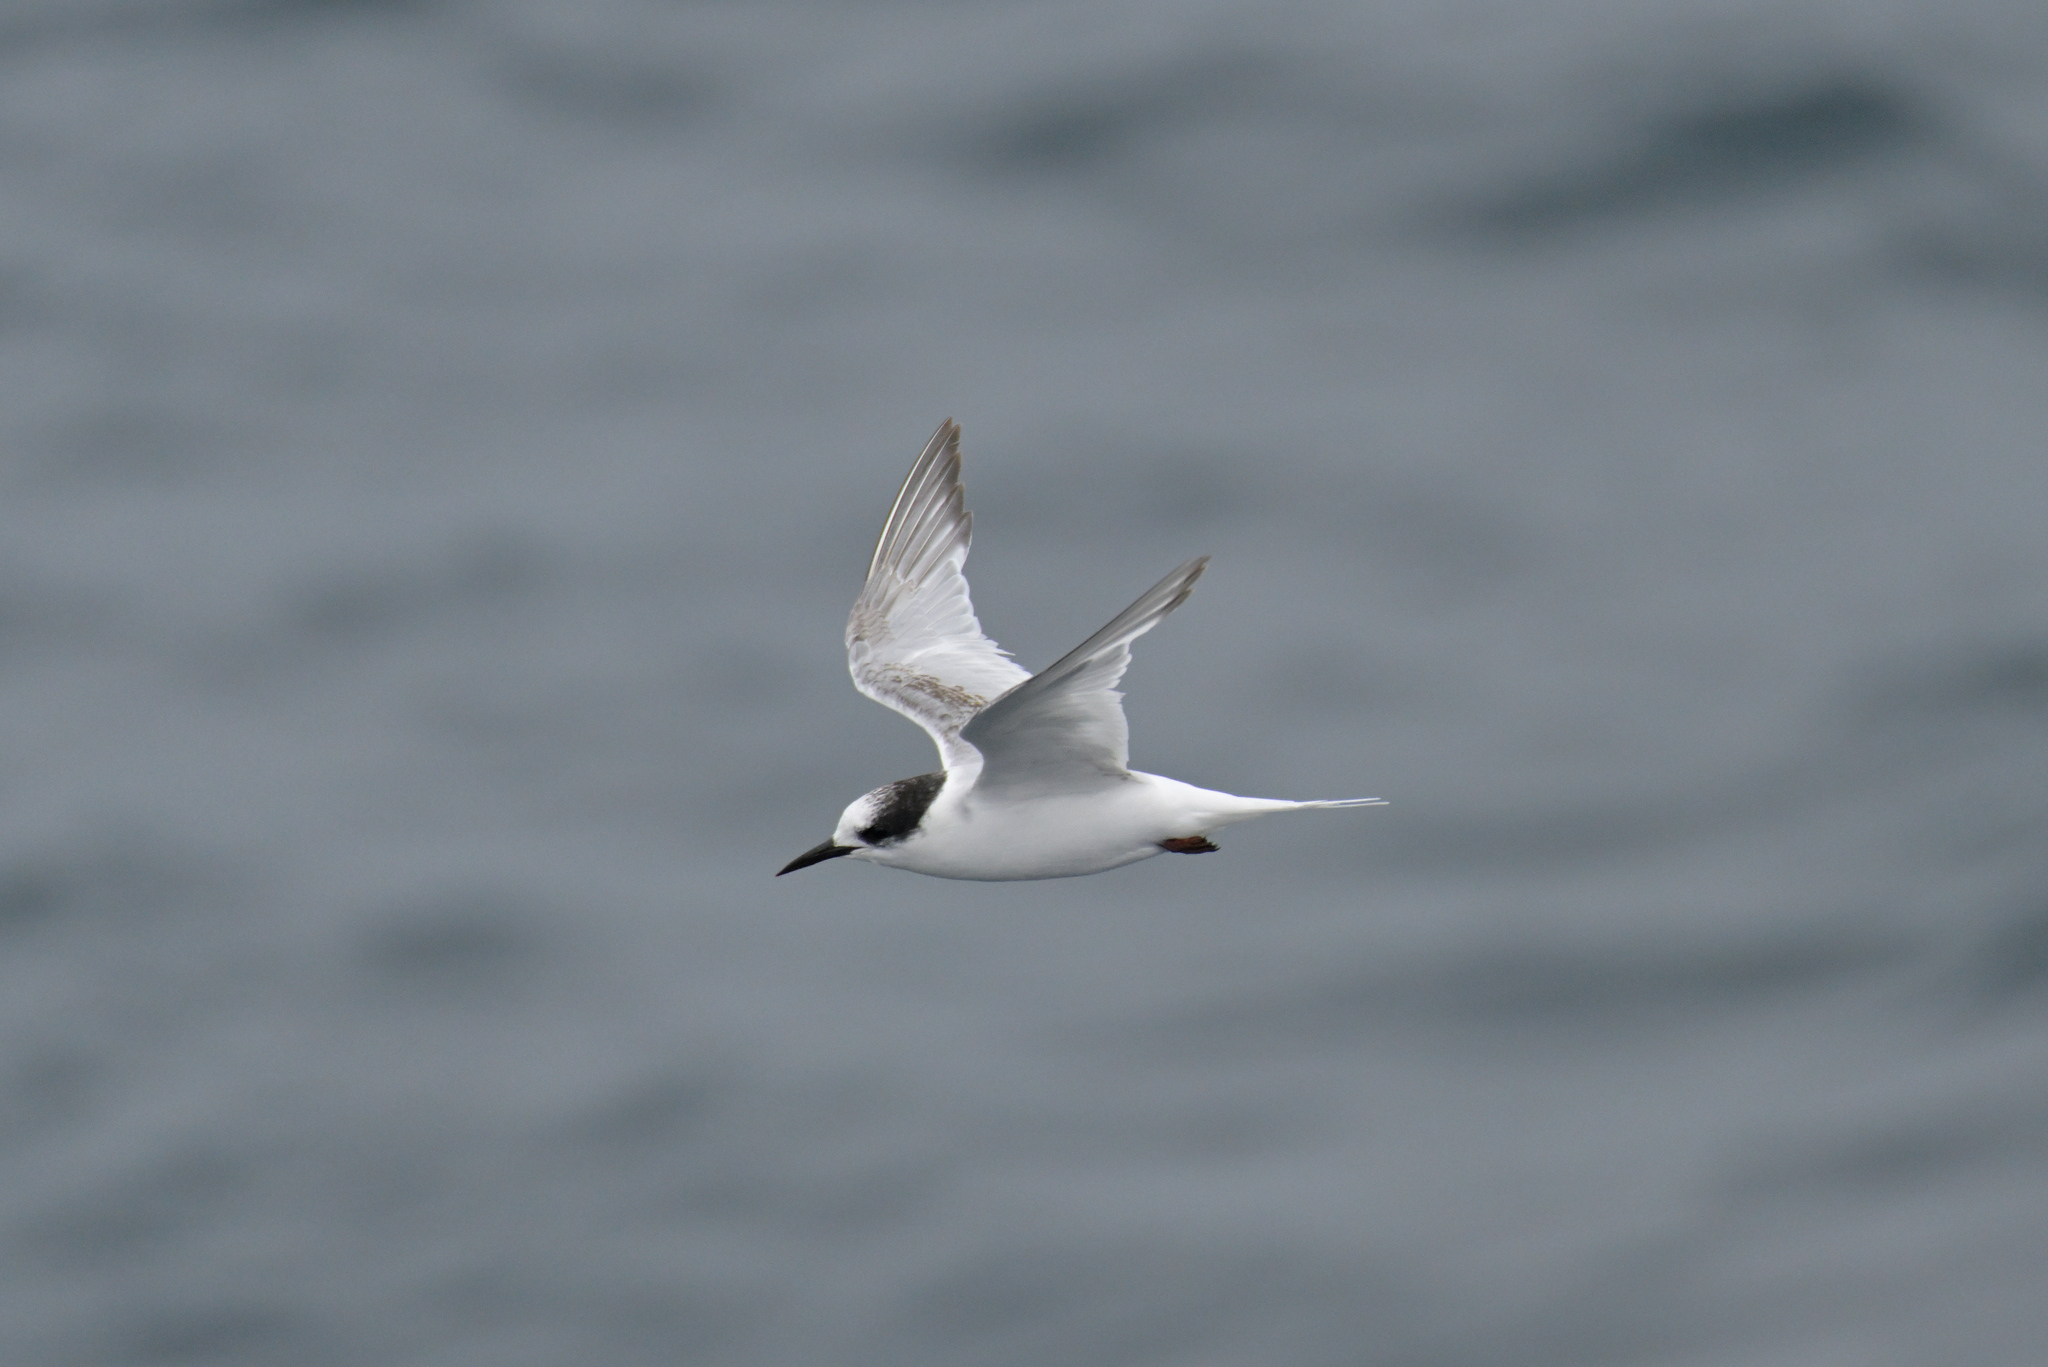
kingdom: Animalia
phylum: Chordata
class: Aves
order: Charadriiformes
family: Laridae
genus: Sterna
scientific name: Sterna paradisaea
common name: Arctic tern
